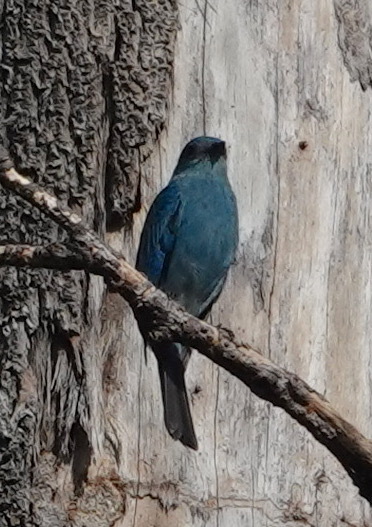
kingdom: Animalia
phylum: Chordata
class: Aves
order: Passeriformes
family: Muscicapidae
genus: Eumyias
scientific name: Eumyias thalassinus
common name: Verditer flycatcher
